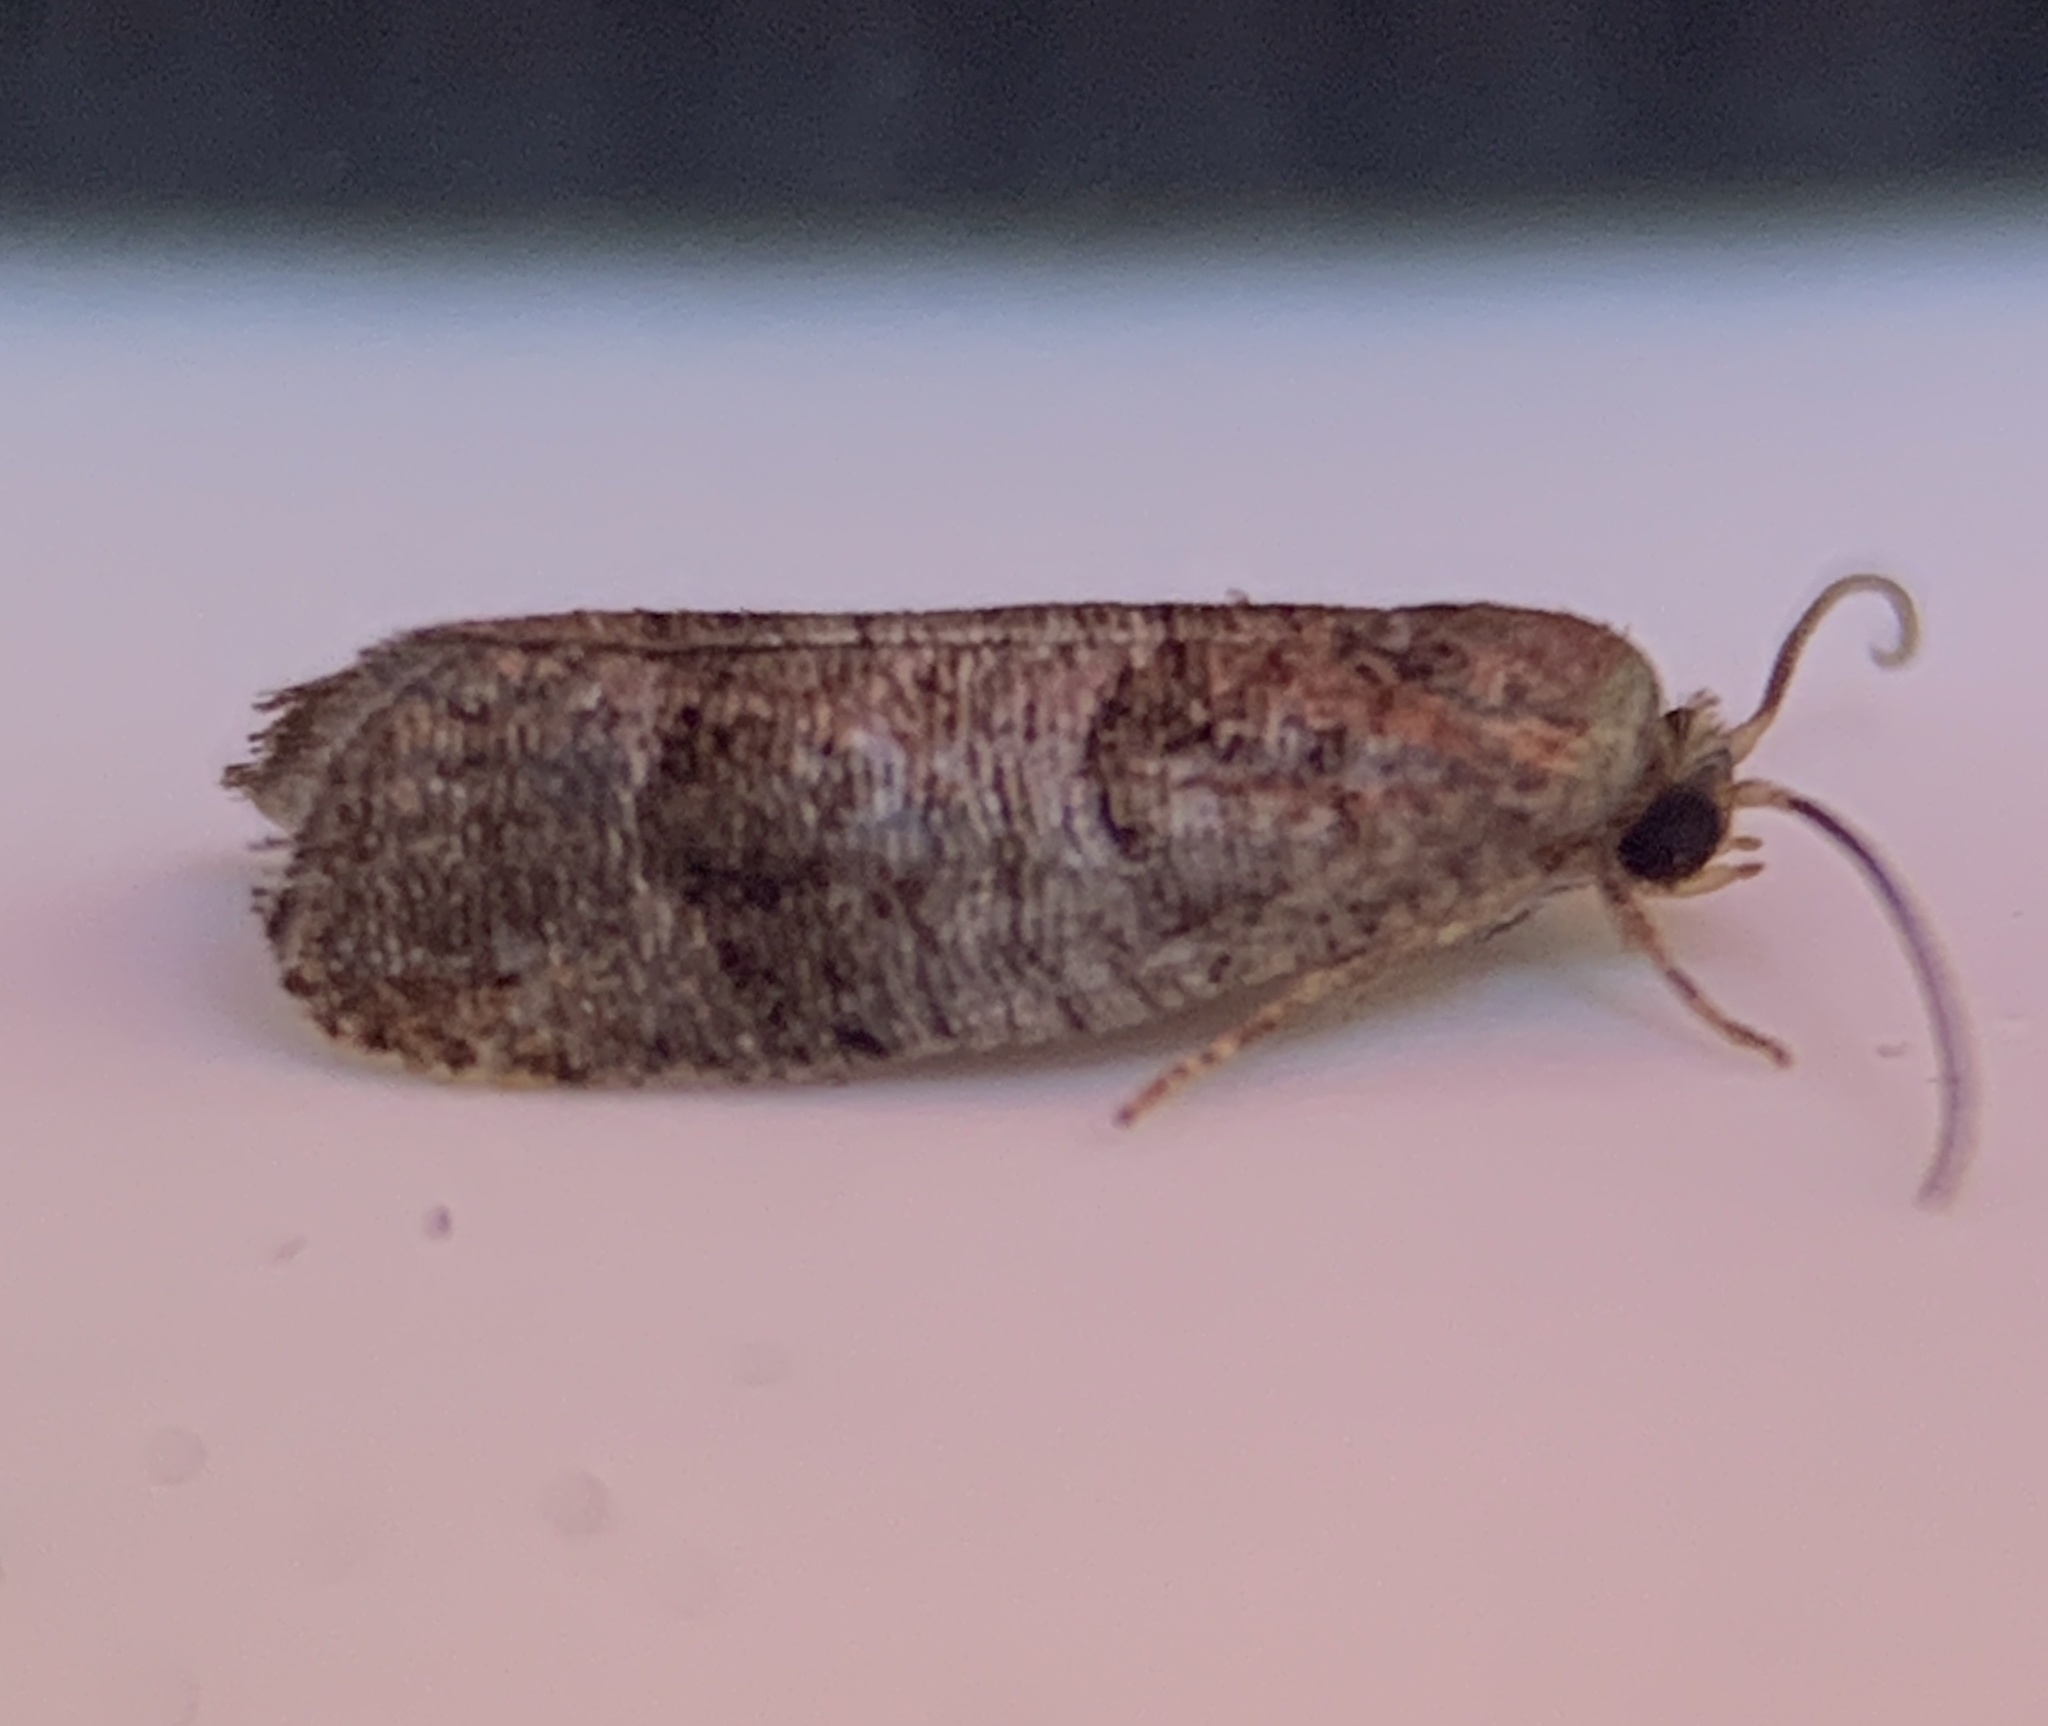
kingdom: Animalia
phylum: Arthropoda
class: Insecta
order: Lepidoptera
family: Tortricidae
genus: Larisa
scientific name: Larisa subsolana
